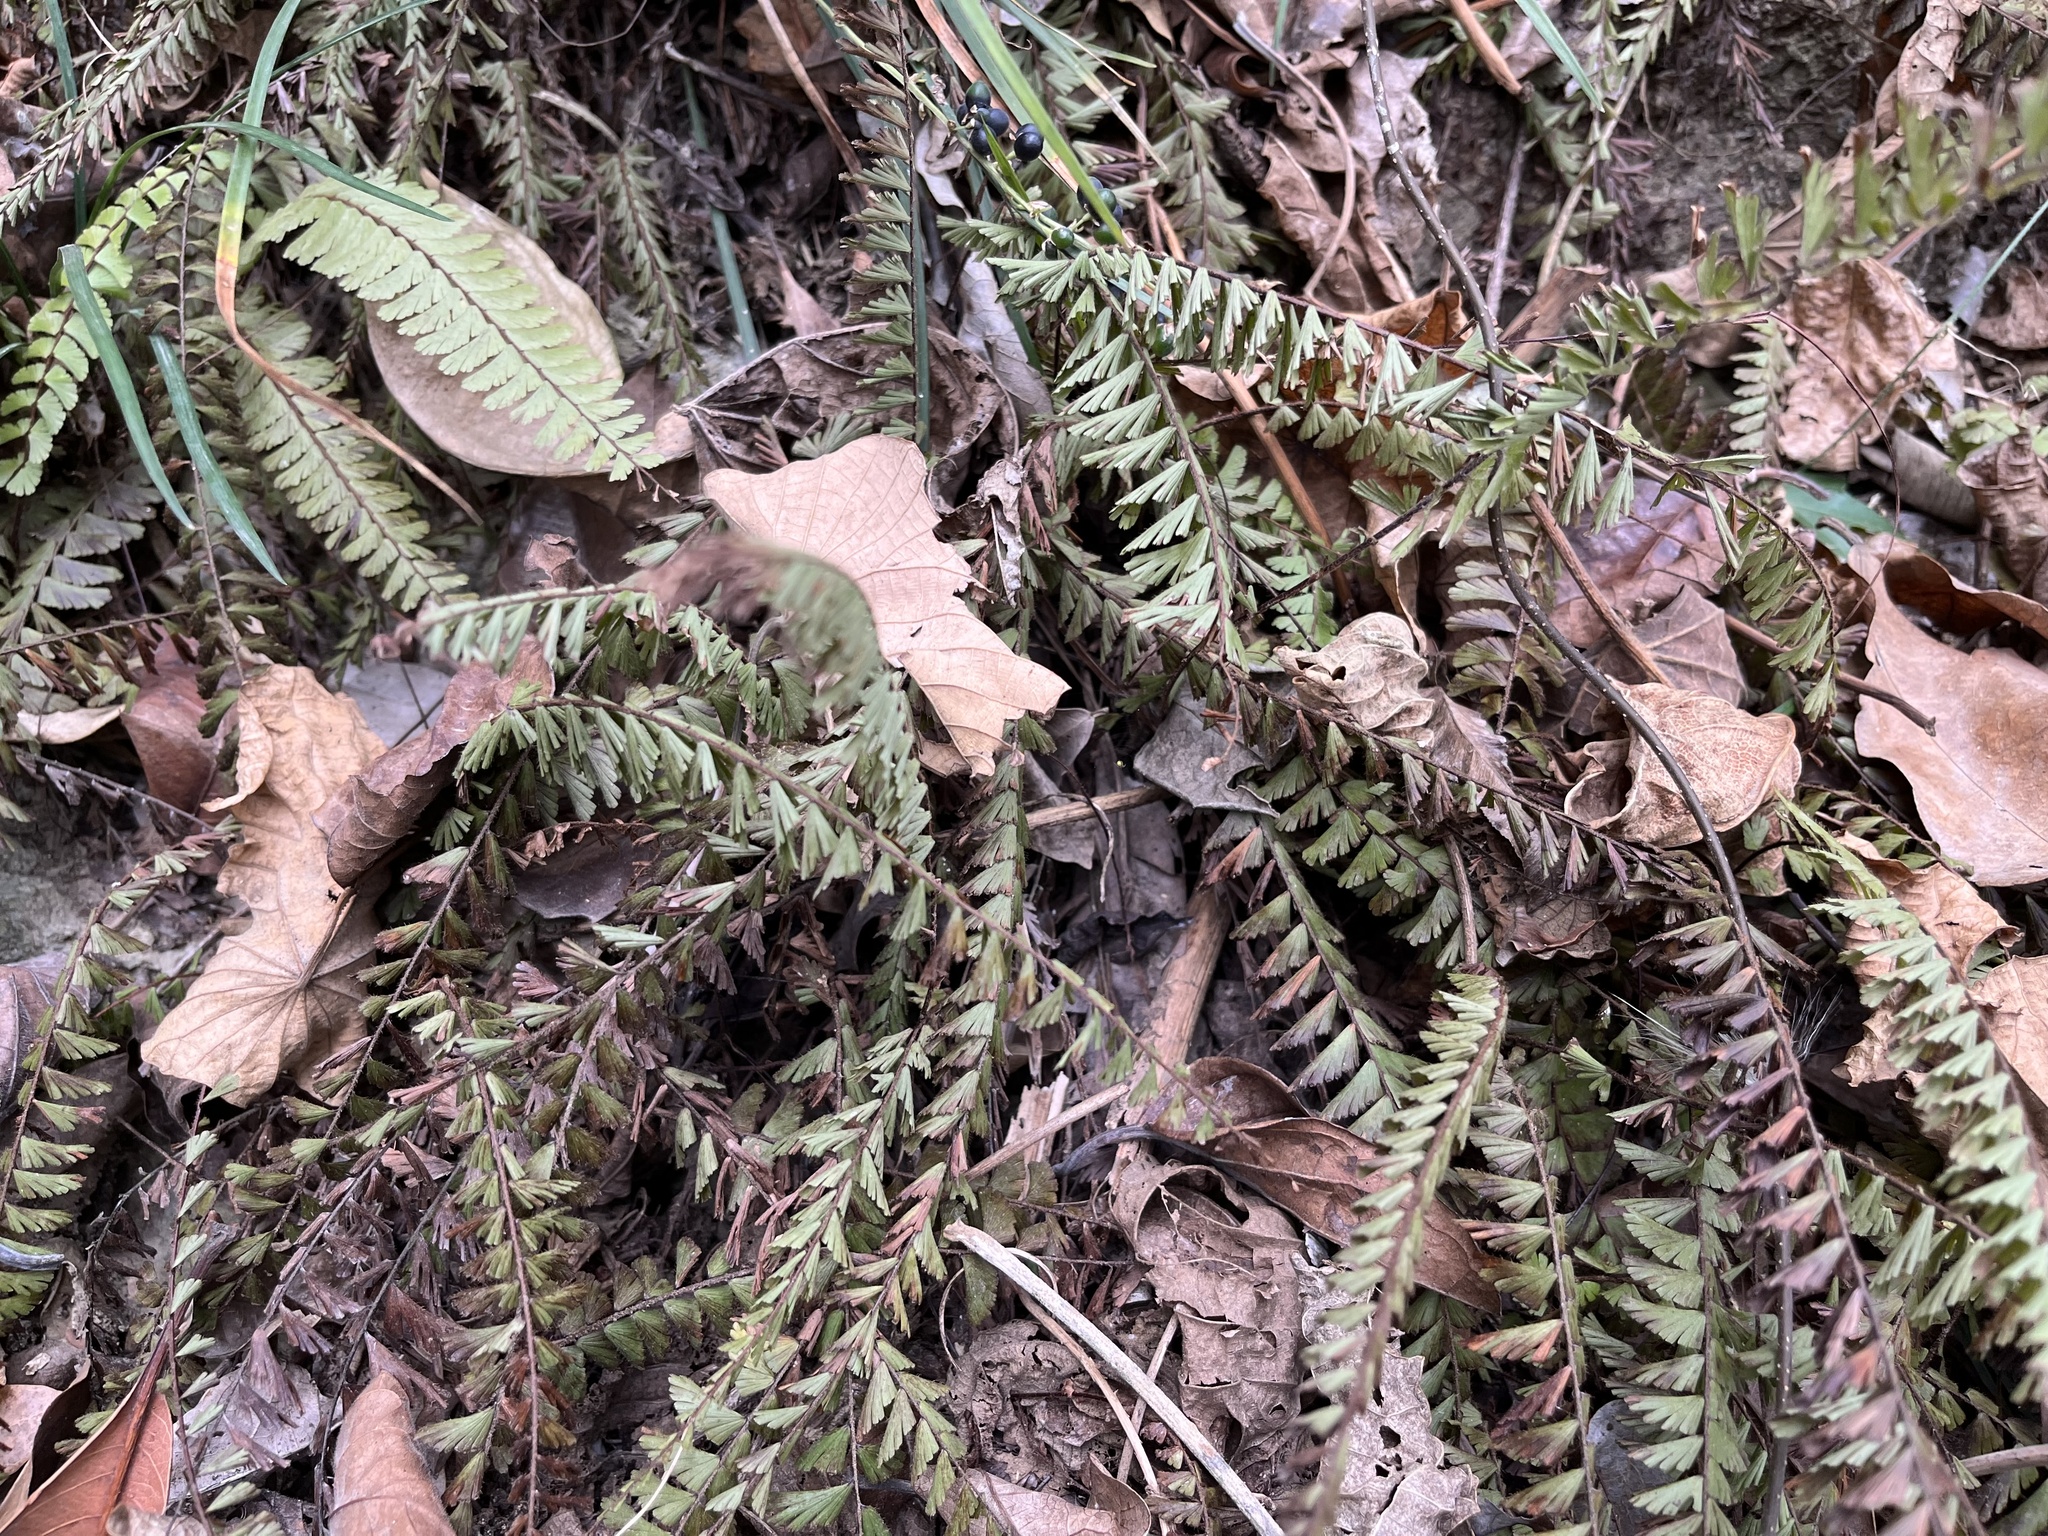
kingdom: Plantae
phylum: Tracheophyta
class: Polypodiopsida
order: Polypodiales
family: Aspleniaceae
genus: Asplenium
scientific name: Asplenium gueinzianum
